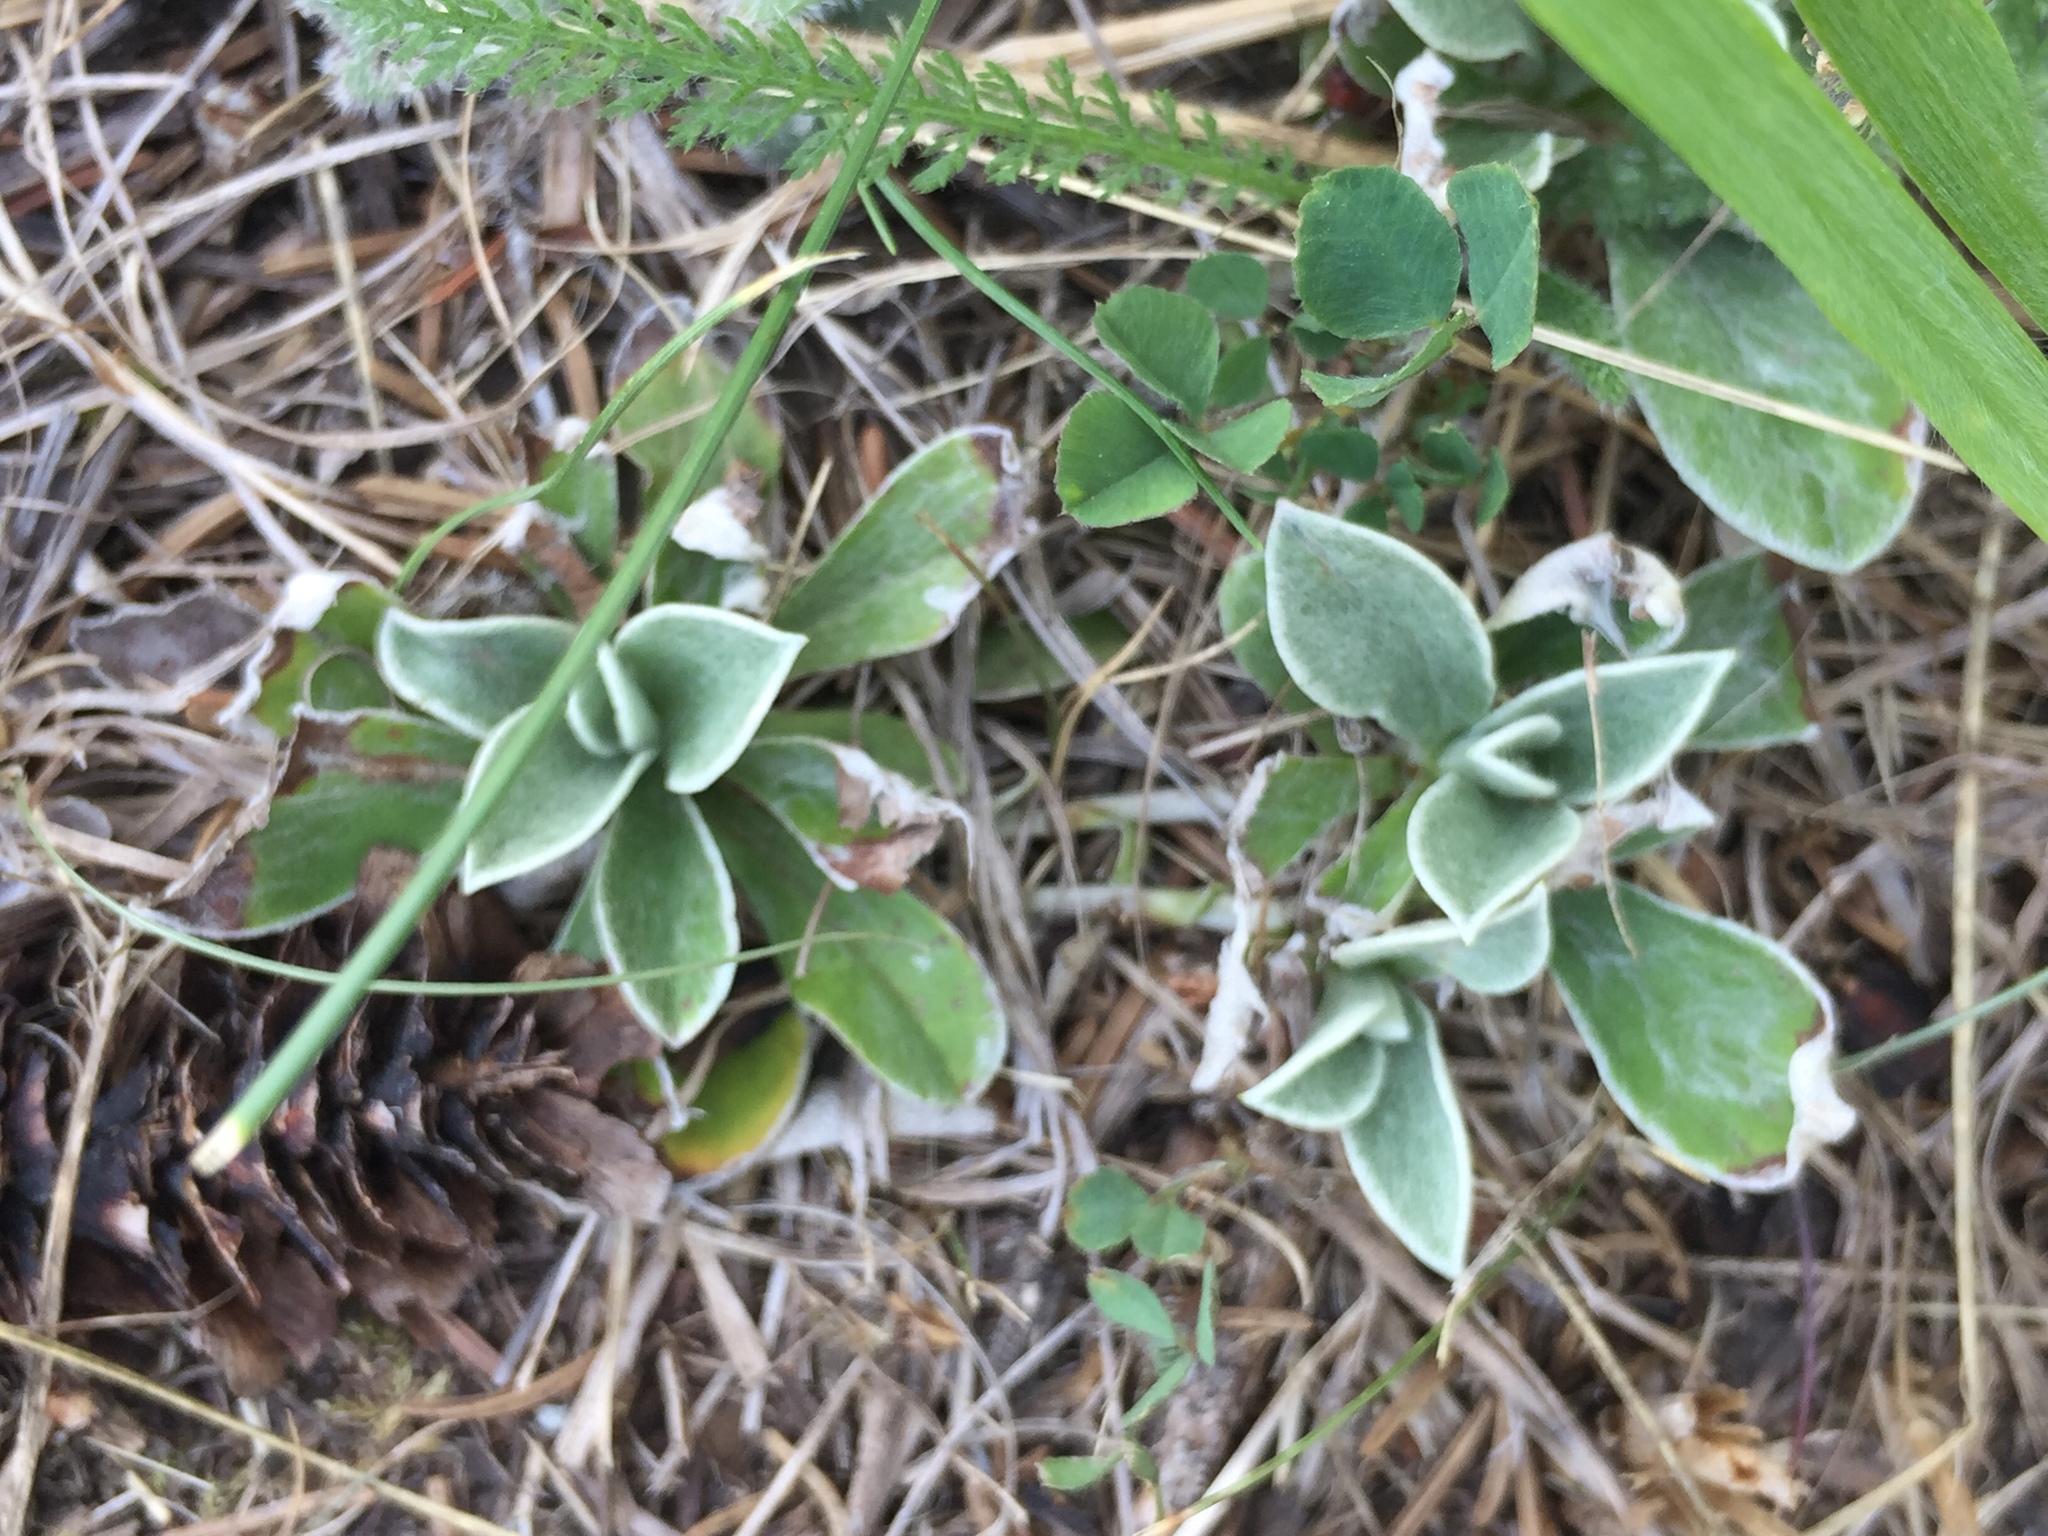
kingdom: Plantae
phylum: Tracheophyta
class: Magnoliopsida
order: Asterales
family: Asteraceae
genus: Antennaria
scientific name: Antennaria neglecta
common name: Field pussytoes
